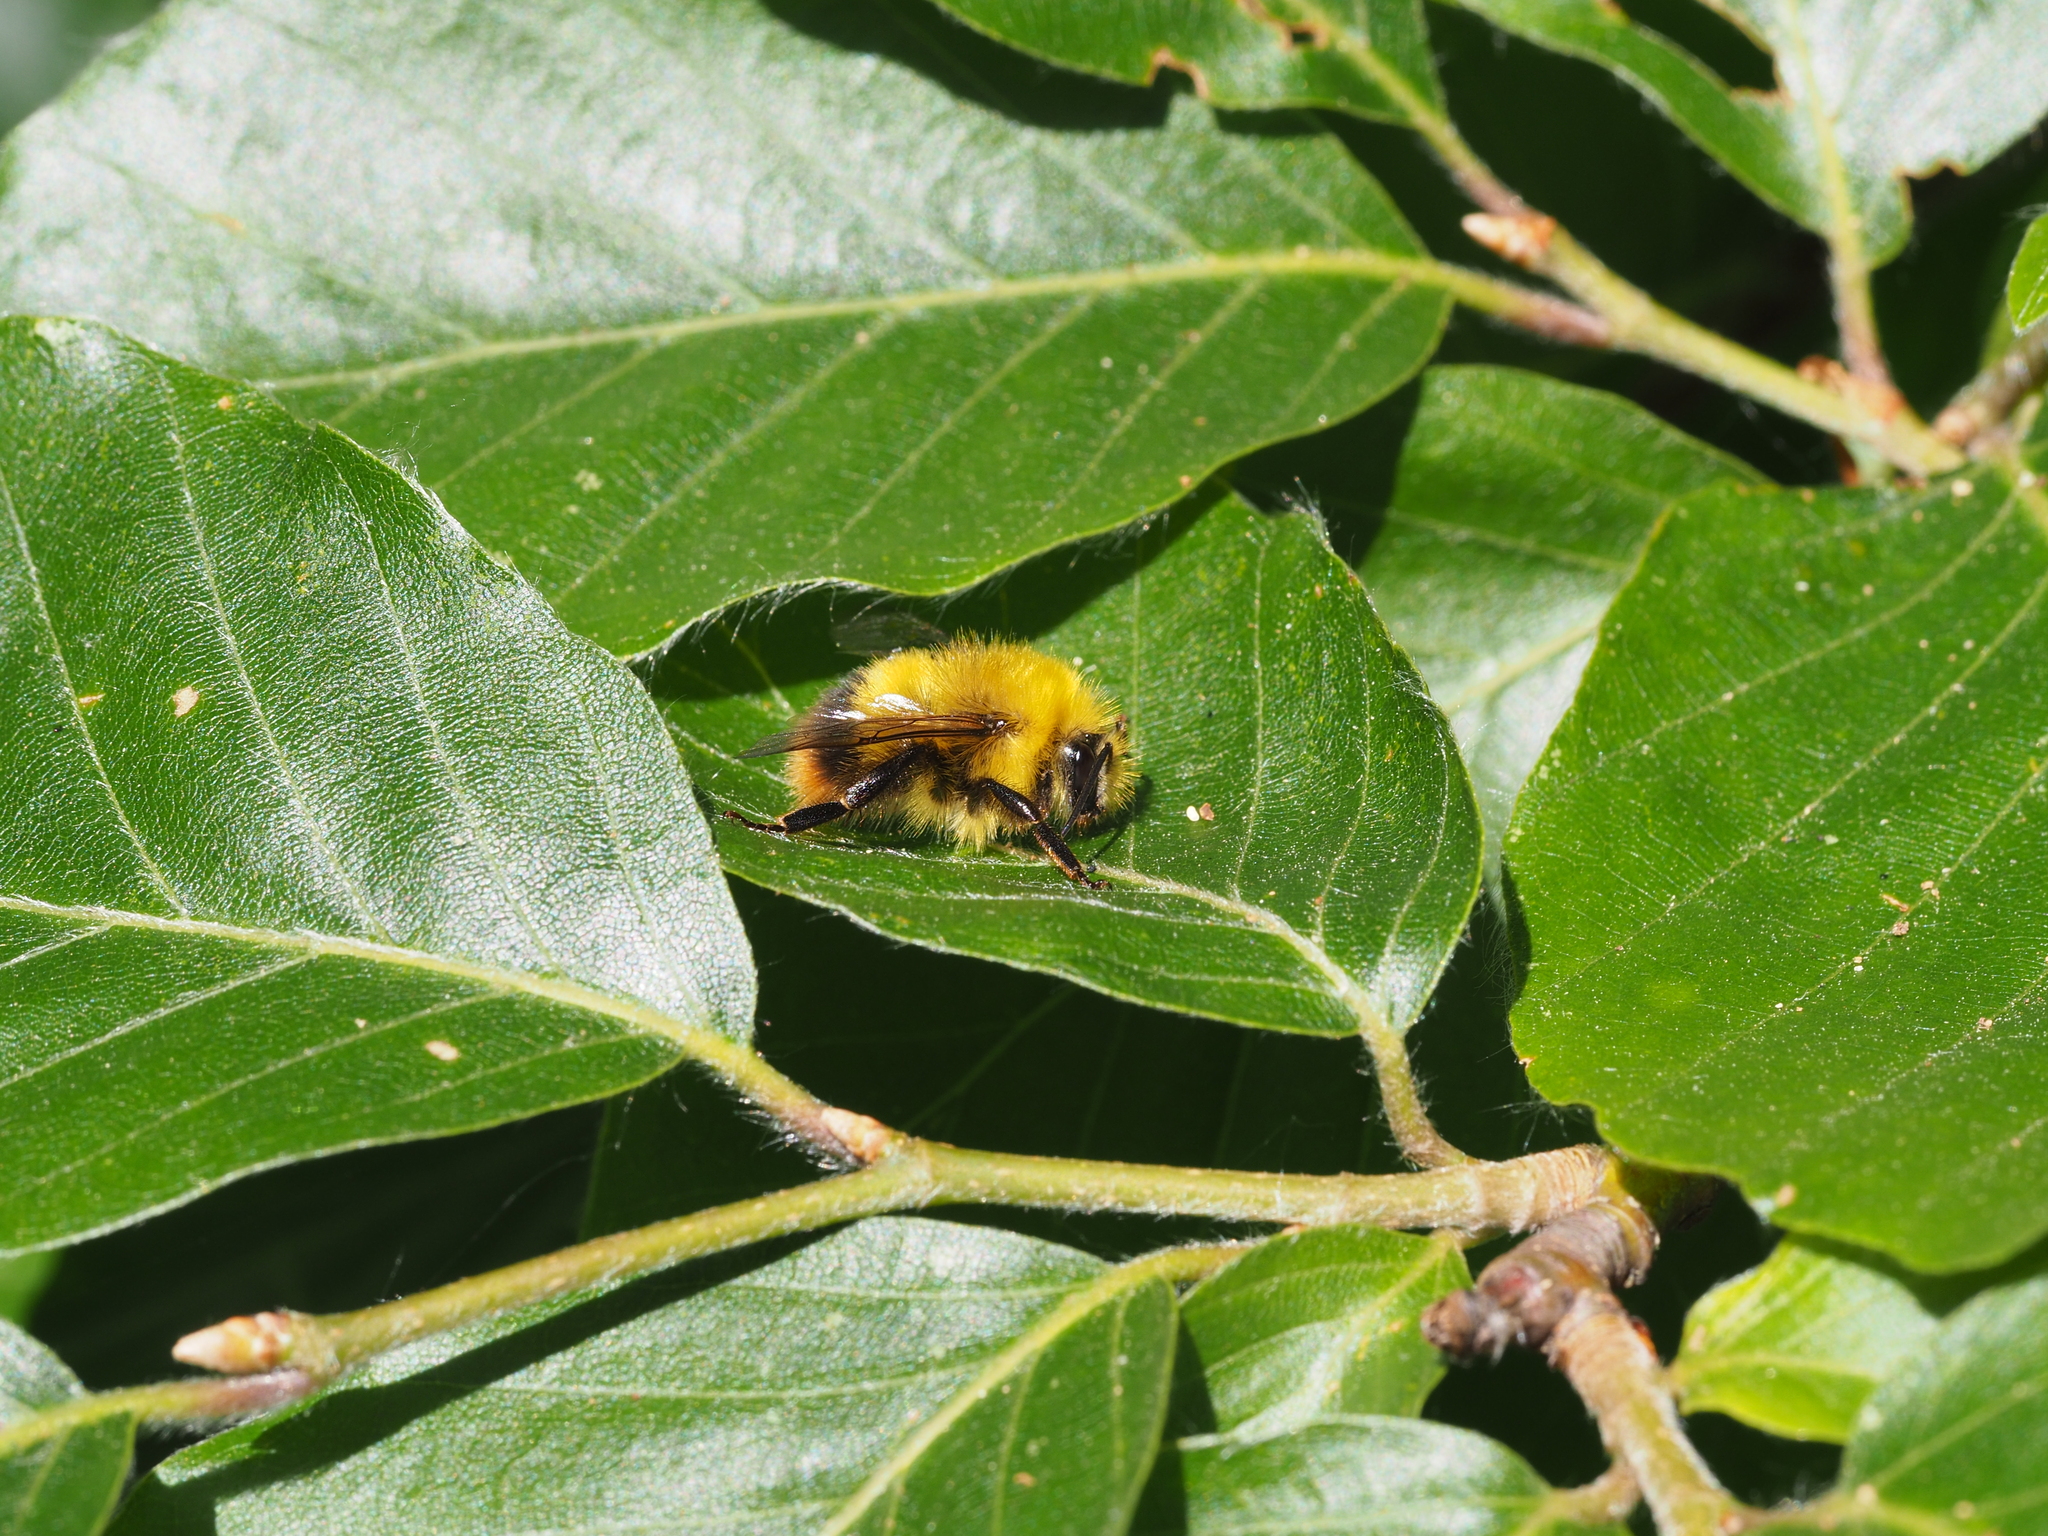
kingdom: Animalia
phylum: Arthropoda
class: Insecta
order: Hymenoptera
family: Apidae
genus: Bombus
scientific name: Bombus pratorum
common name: Early humble-bee
